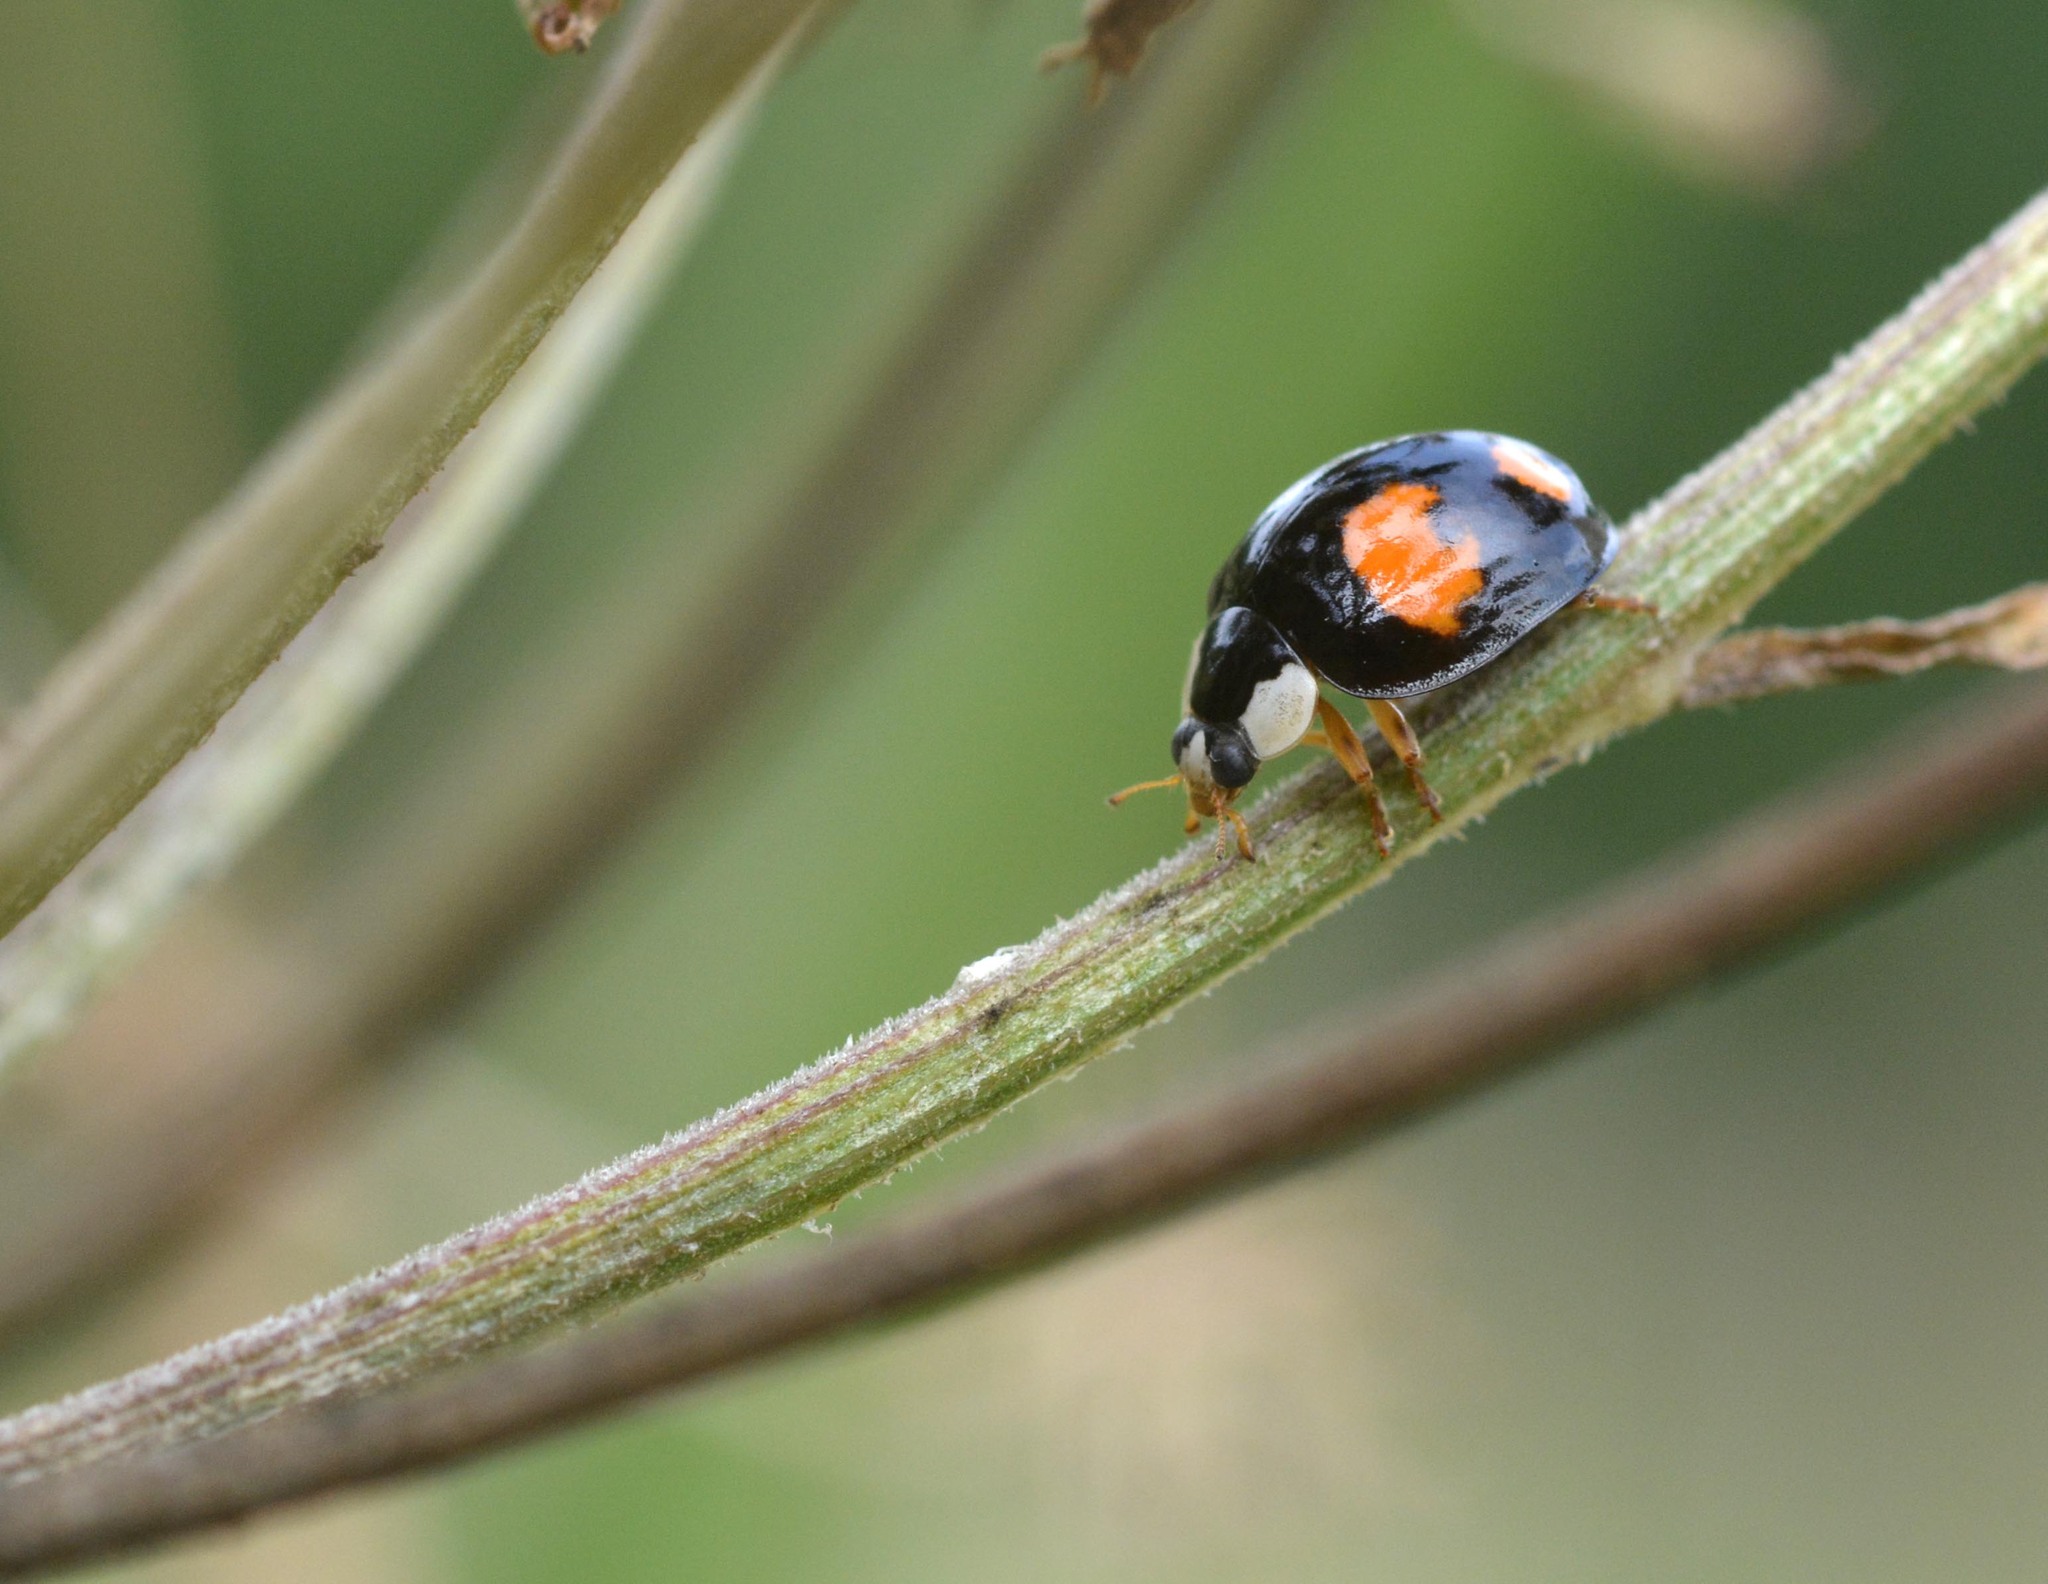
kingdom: Animalia
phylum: Arthropoda
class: Insecta
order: Coleoptera
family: Coccinellidae
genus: Harmonia
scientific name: Harmonia axyridis
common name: Harlequin ladybird
